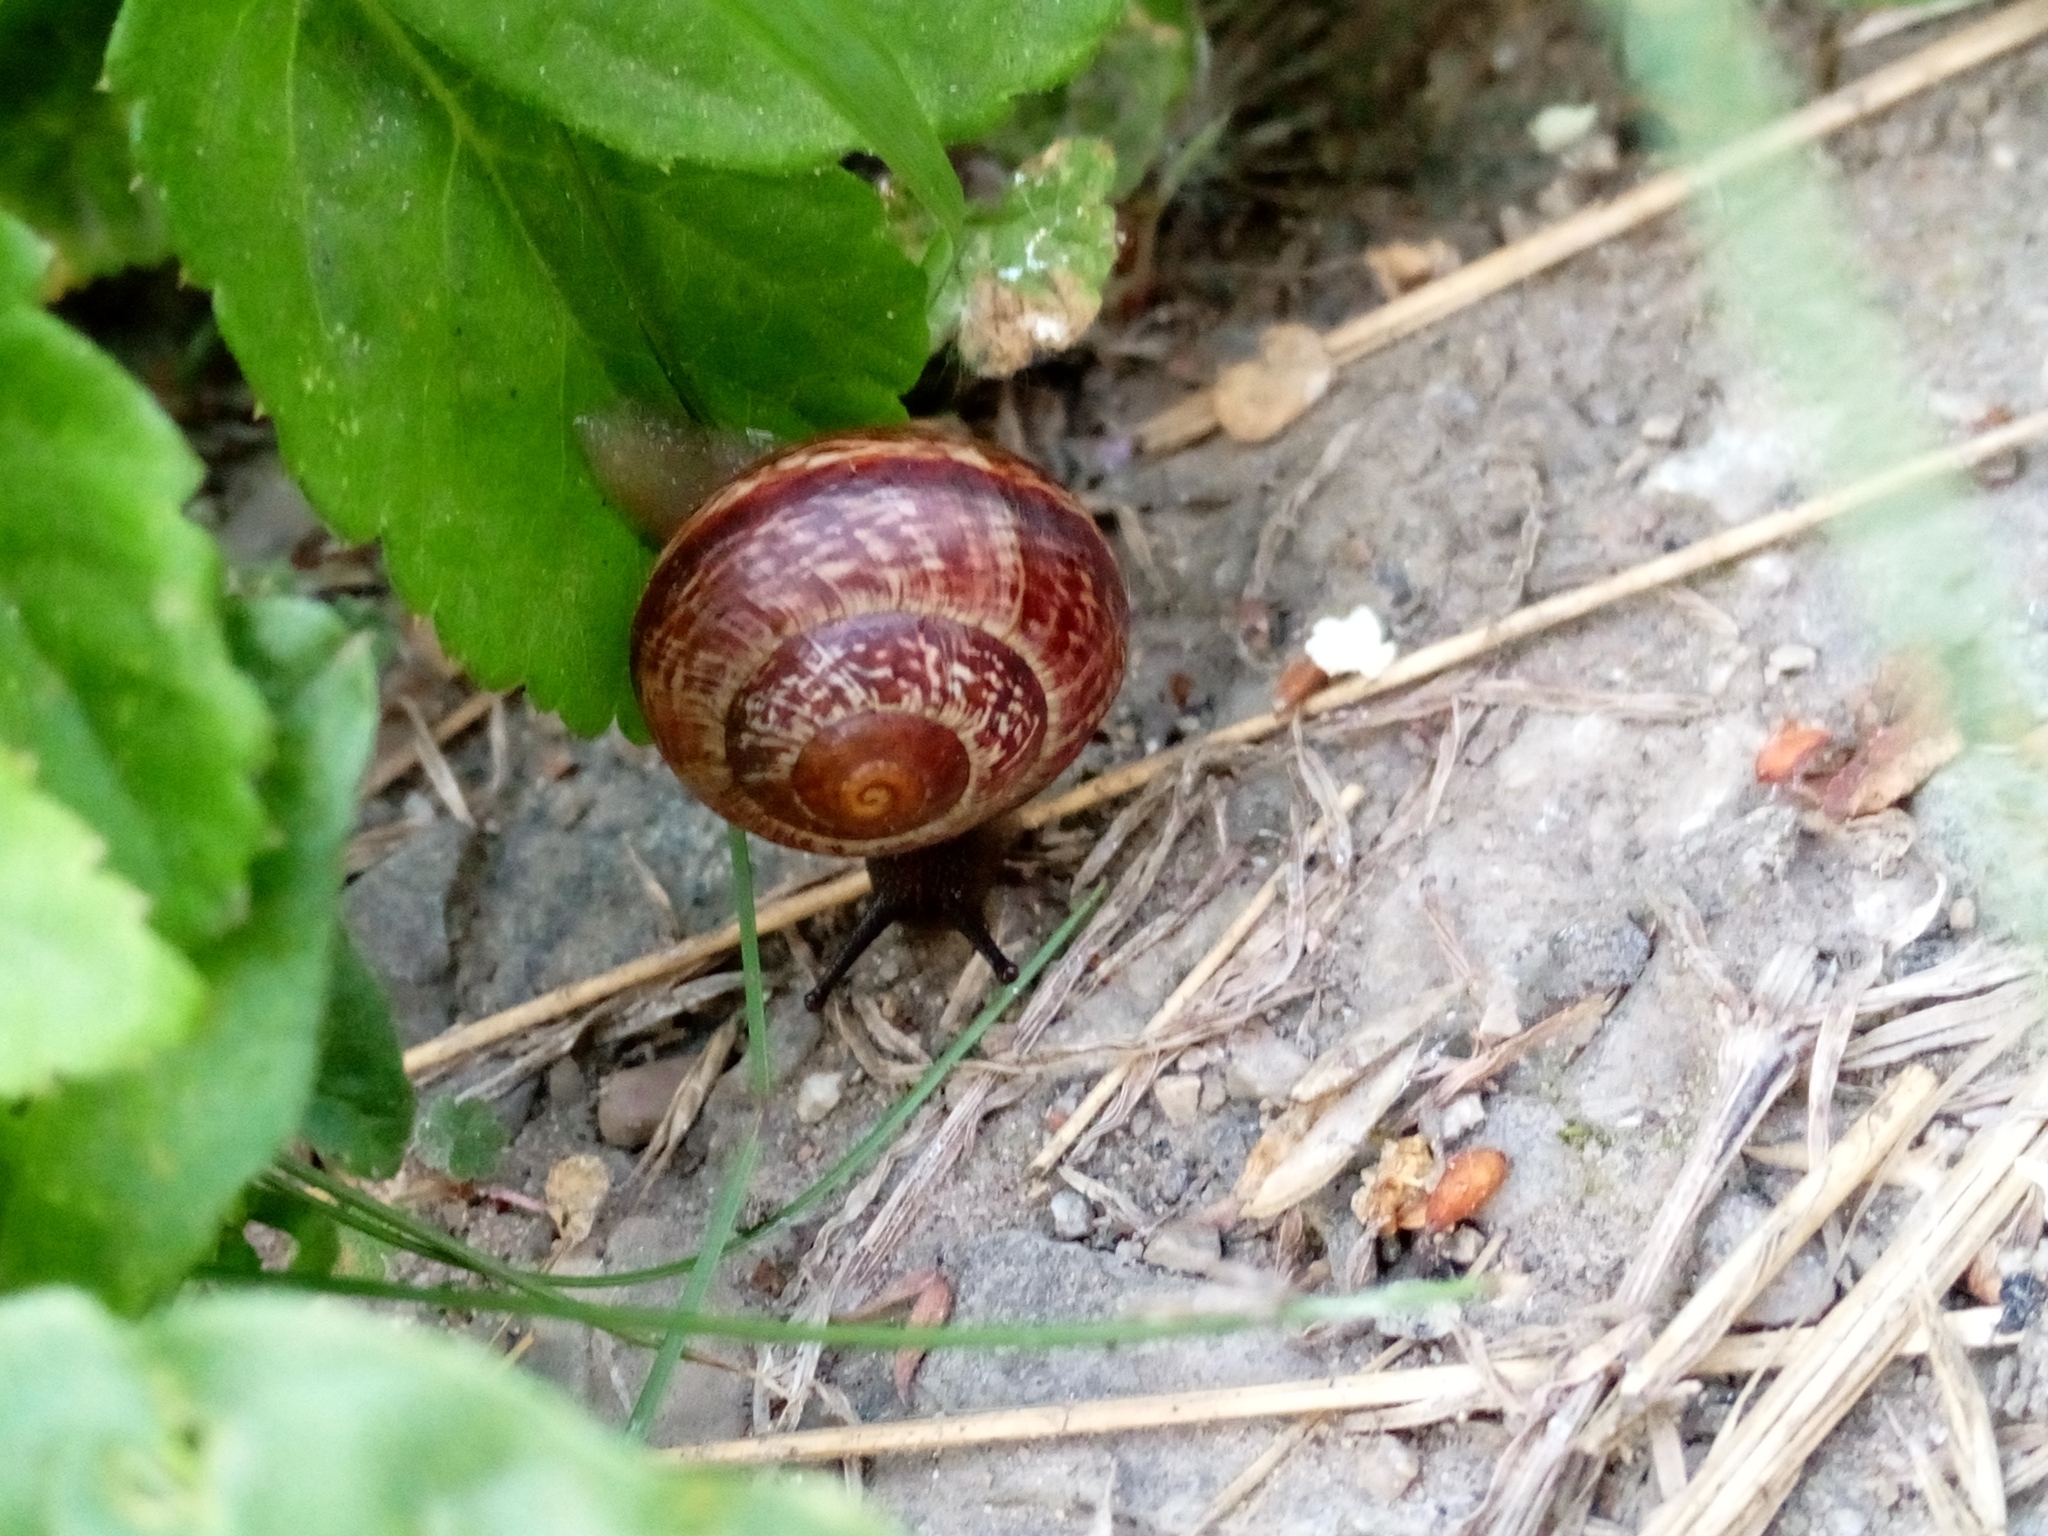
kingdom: Animalia
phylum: Mollusca
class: Gastropoda
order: Stylommatophora
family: Helicidae
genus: Arianta
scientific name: Arianta arbustorum
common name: Copse snail
